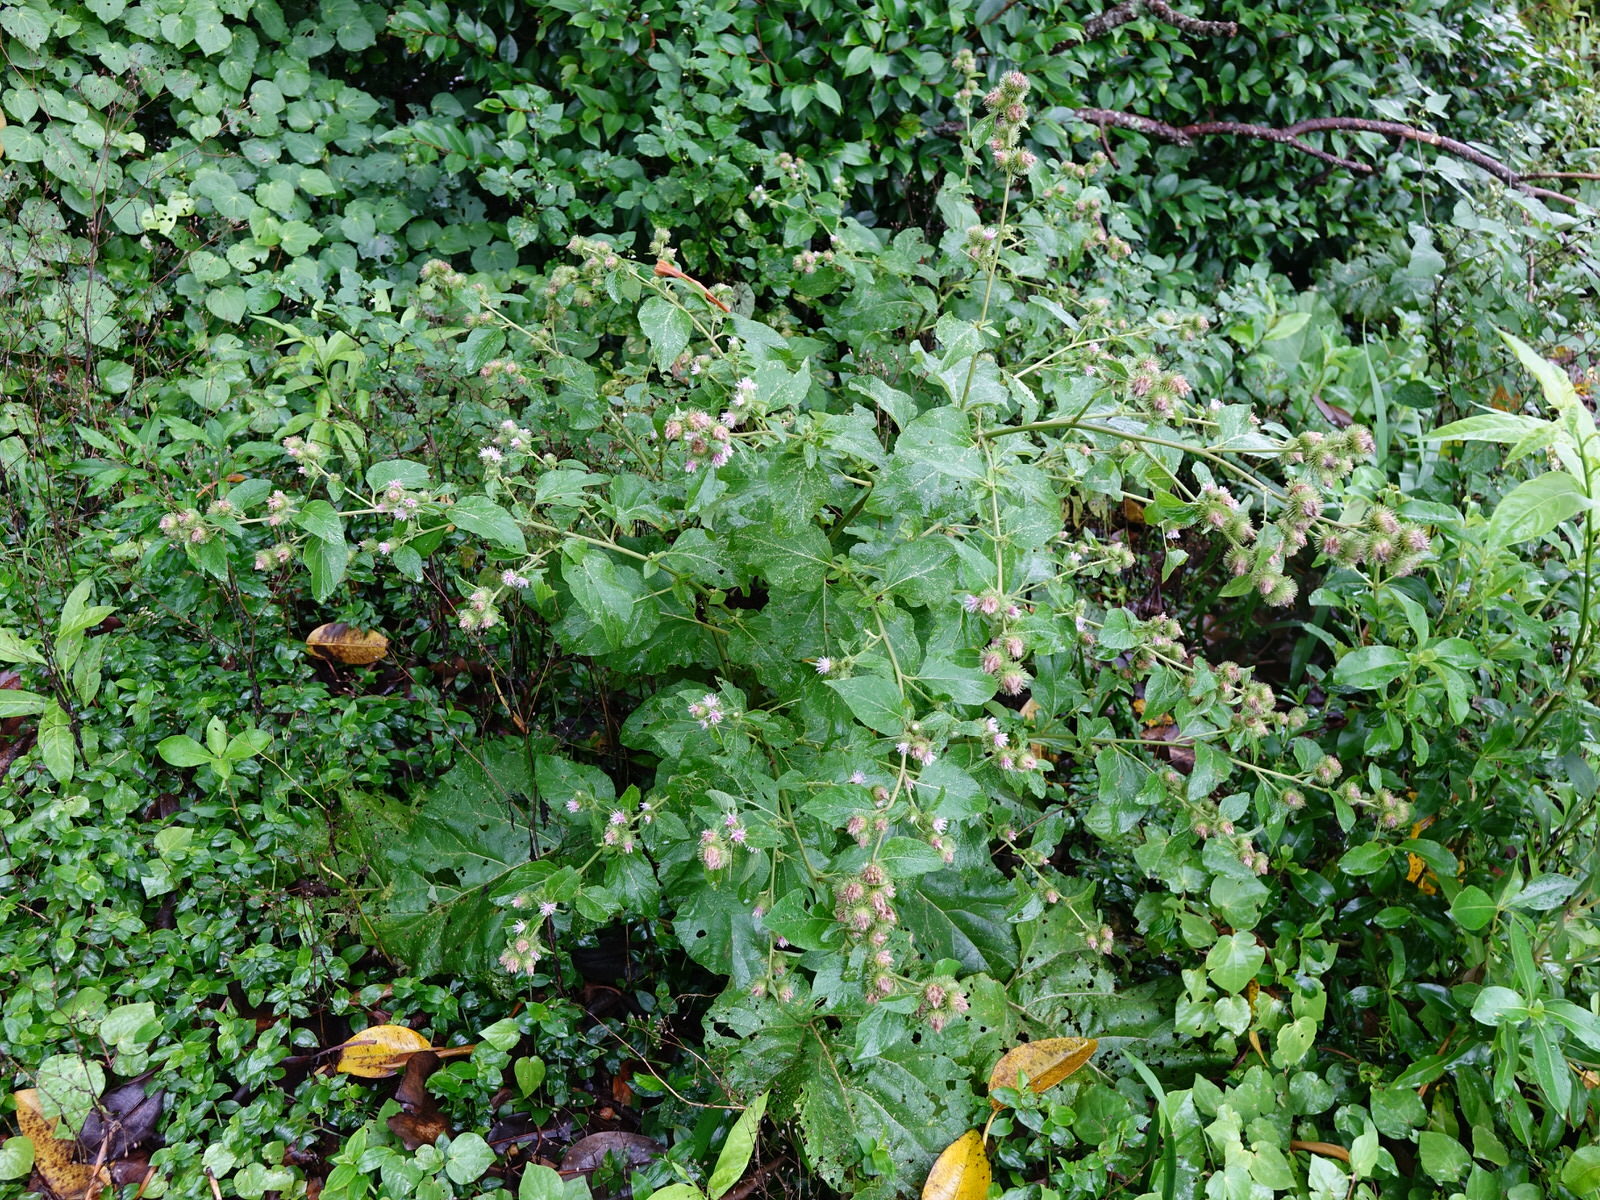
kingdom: Plantae
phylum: Tracheophyta
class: Magnoliopsida
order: Asterales
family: Asteraceae
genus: Arctium
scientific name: Arctium lappa
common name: Greater burdock
